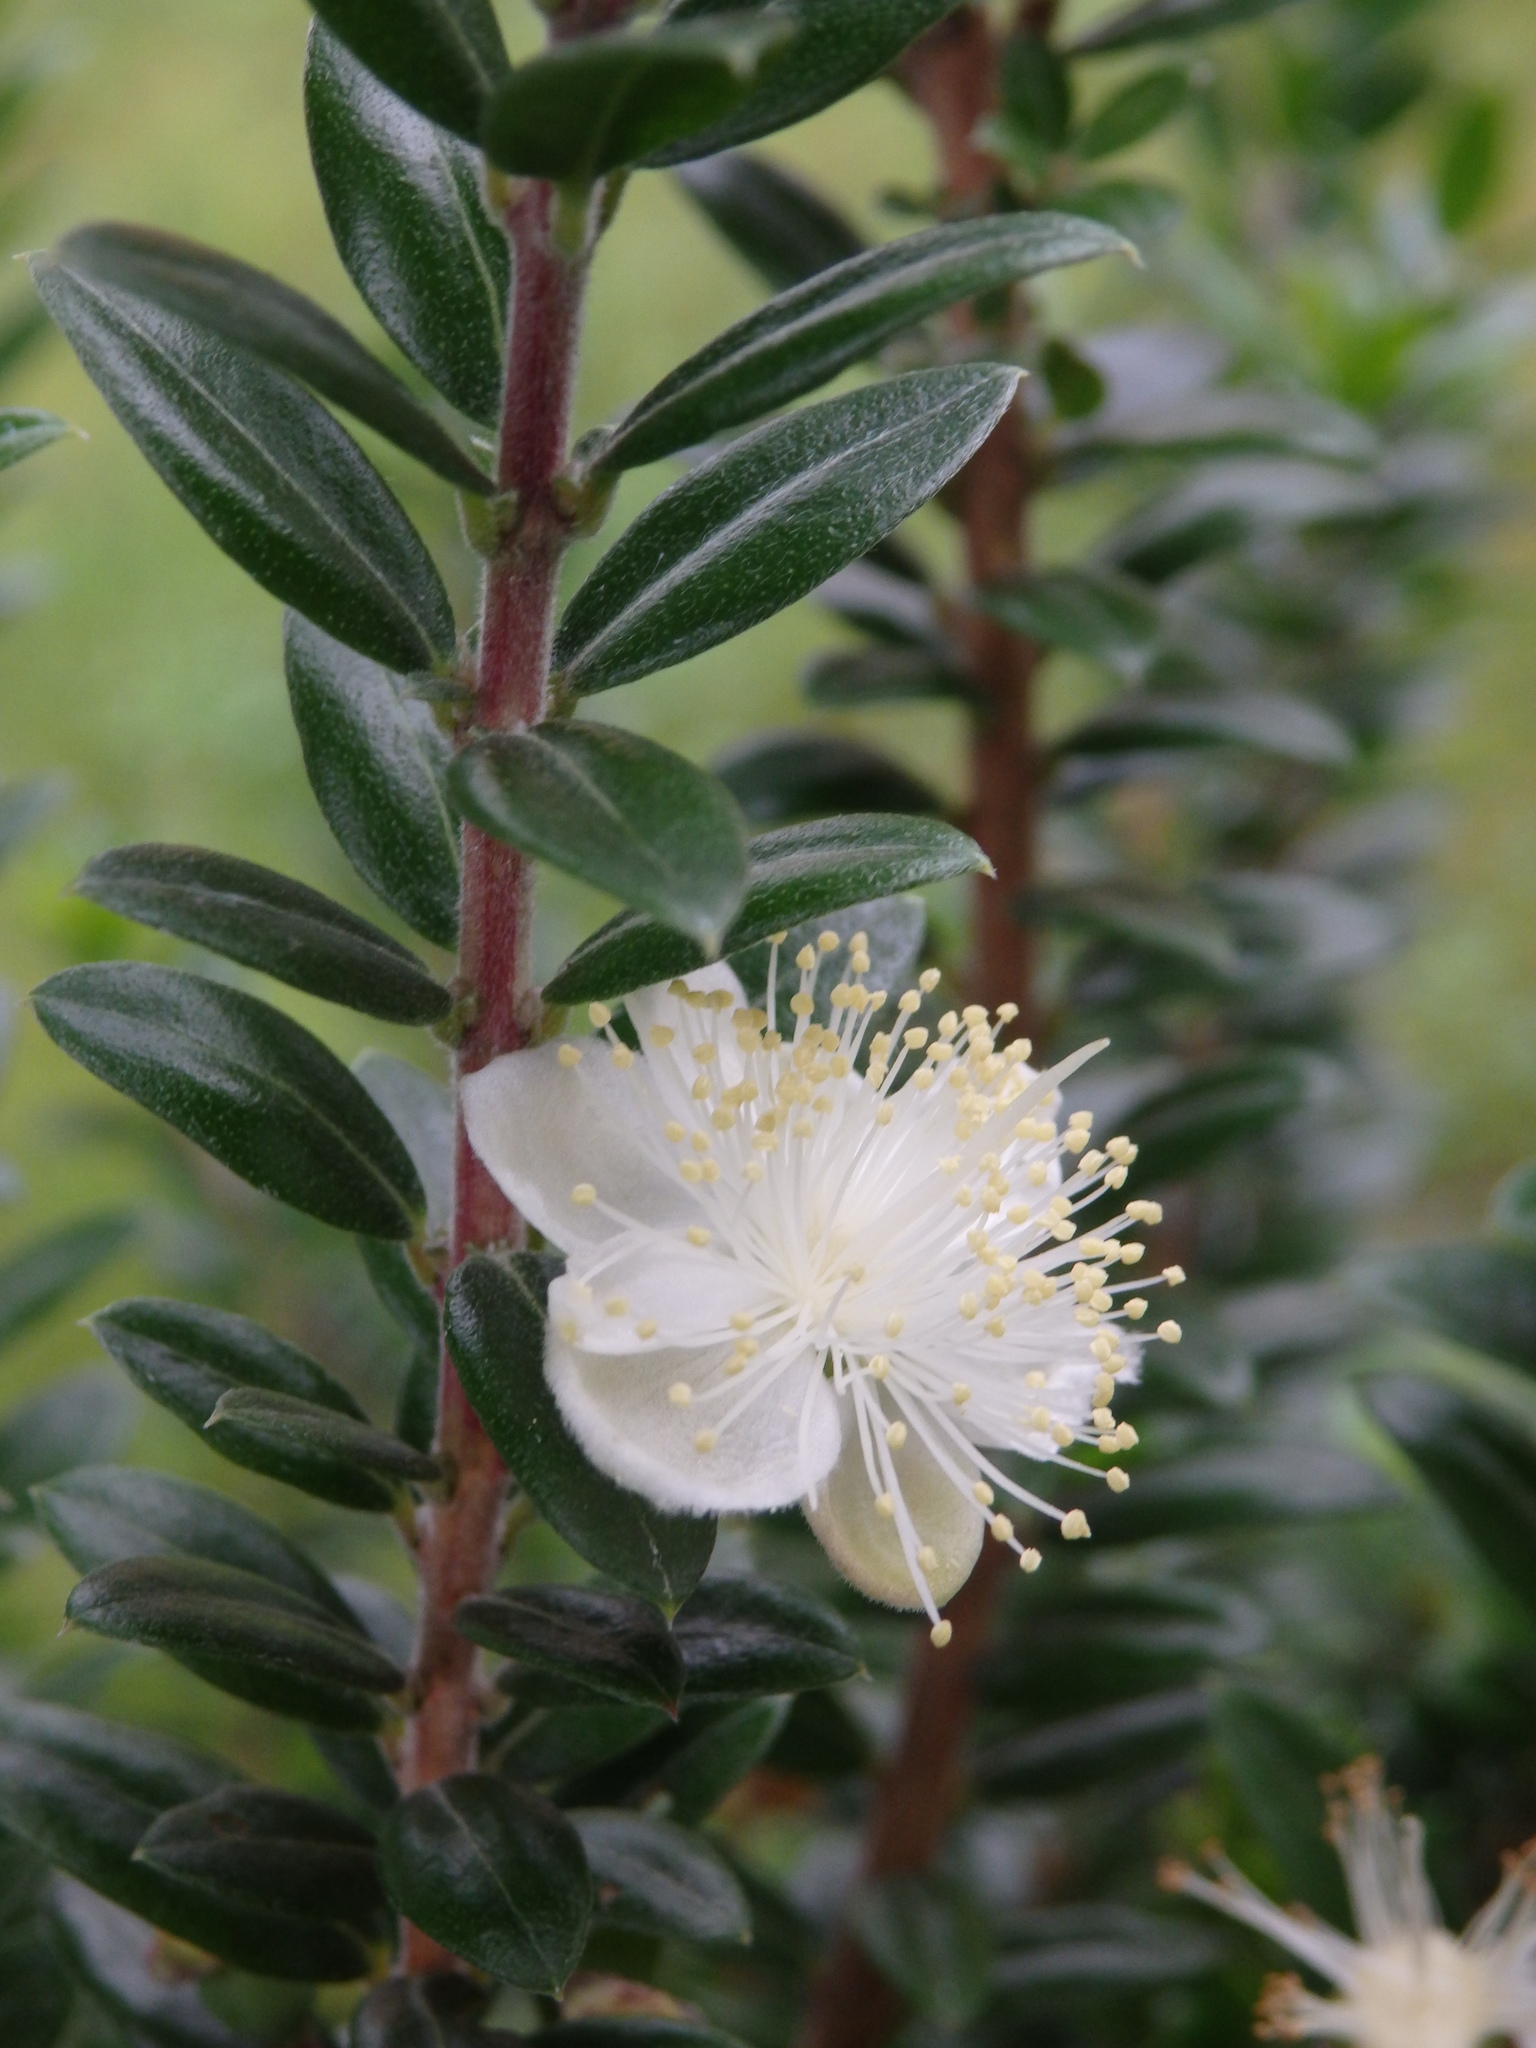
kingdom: Plantae
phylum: Tracheophyta
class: Magnoliopsida
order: Myrtales
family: Myrtaceae
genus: Myrtus
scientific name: Myrtus communis
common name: Myrtle
